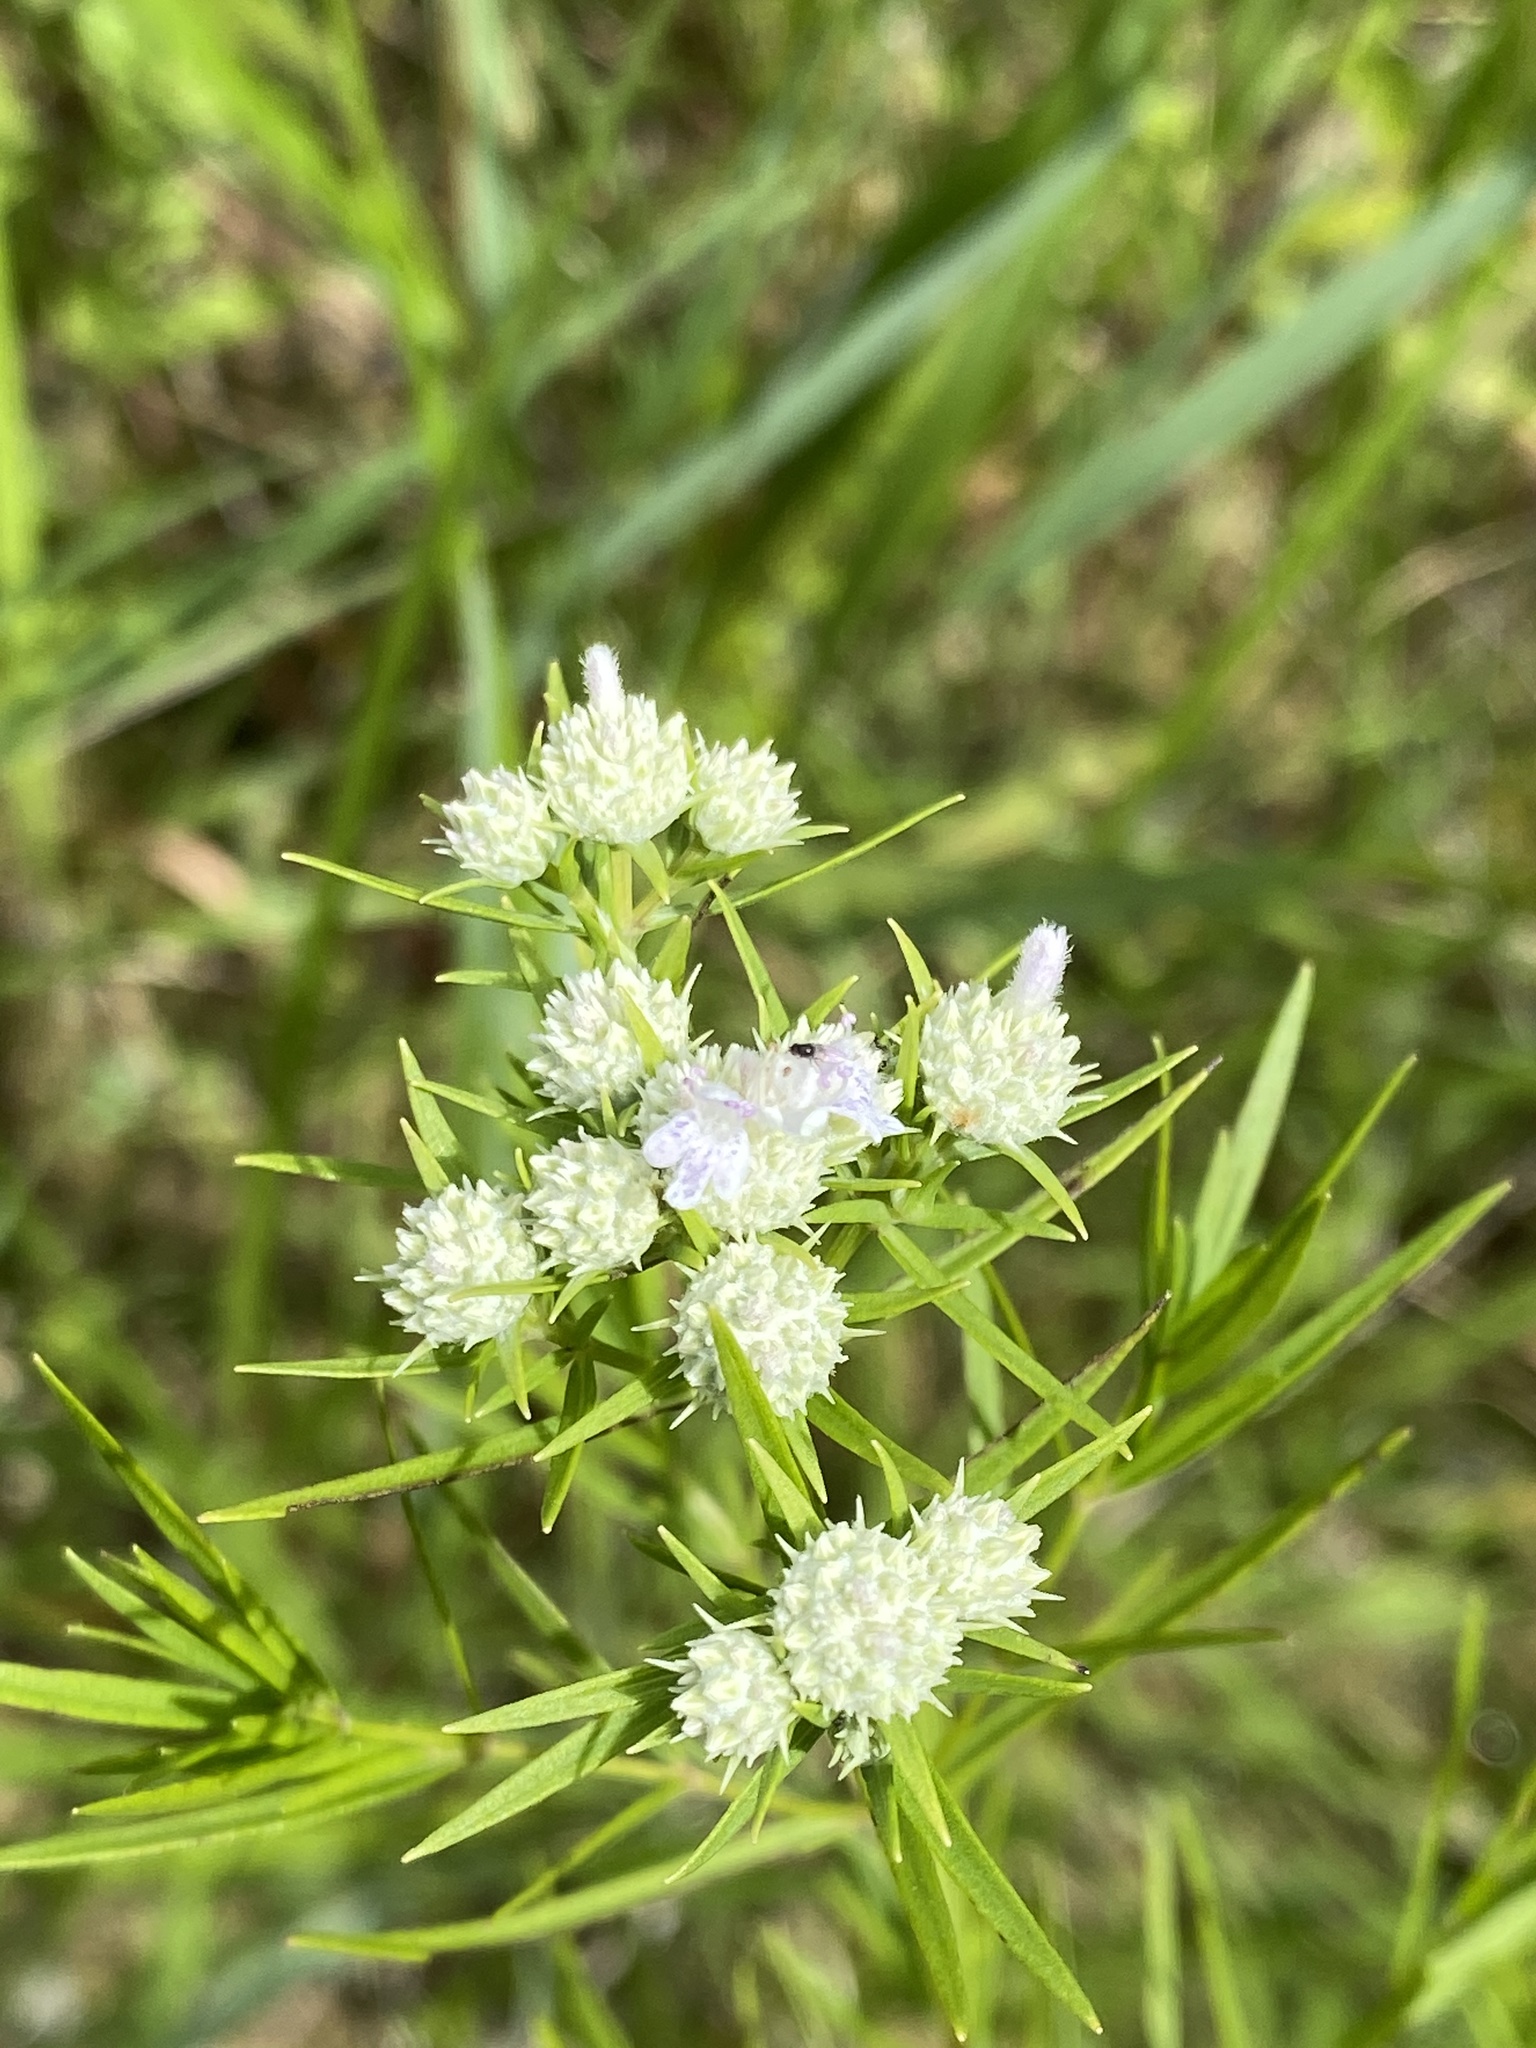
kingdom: Plantae
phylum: Tracheophyta
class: Magnoliopsida
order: Lamiales
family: Lamiaceae
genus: Pycnanthemum
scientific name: Pycnanthemum tenuifolium
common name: Narrow-leaf mountain-mint
